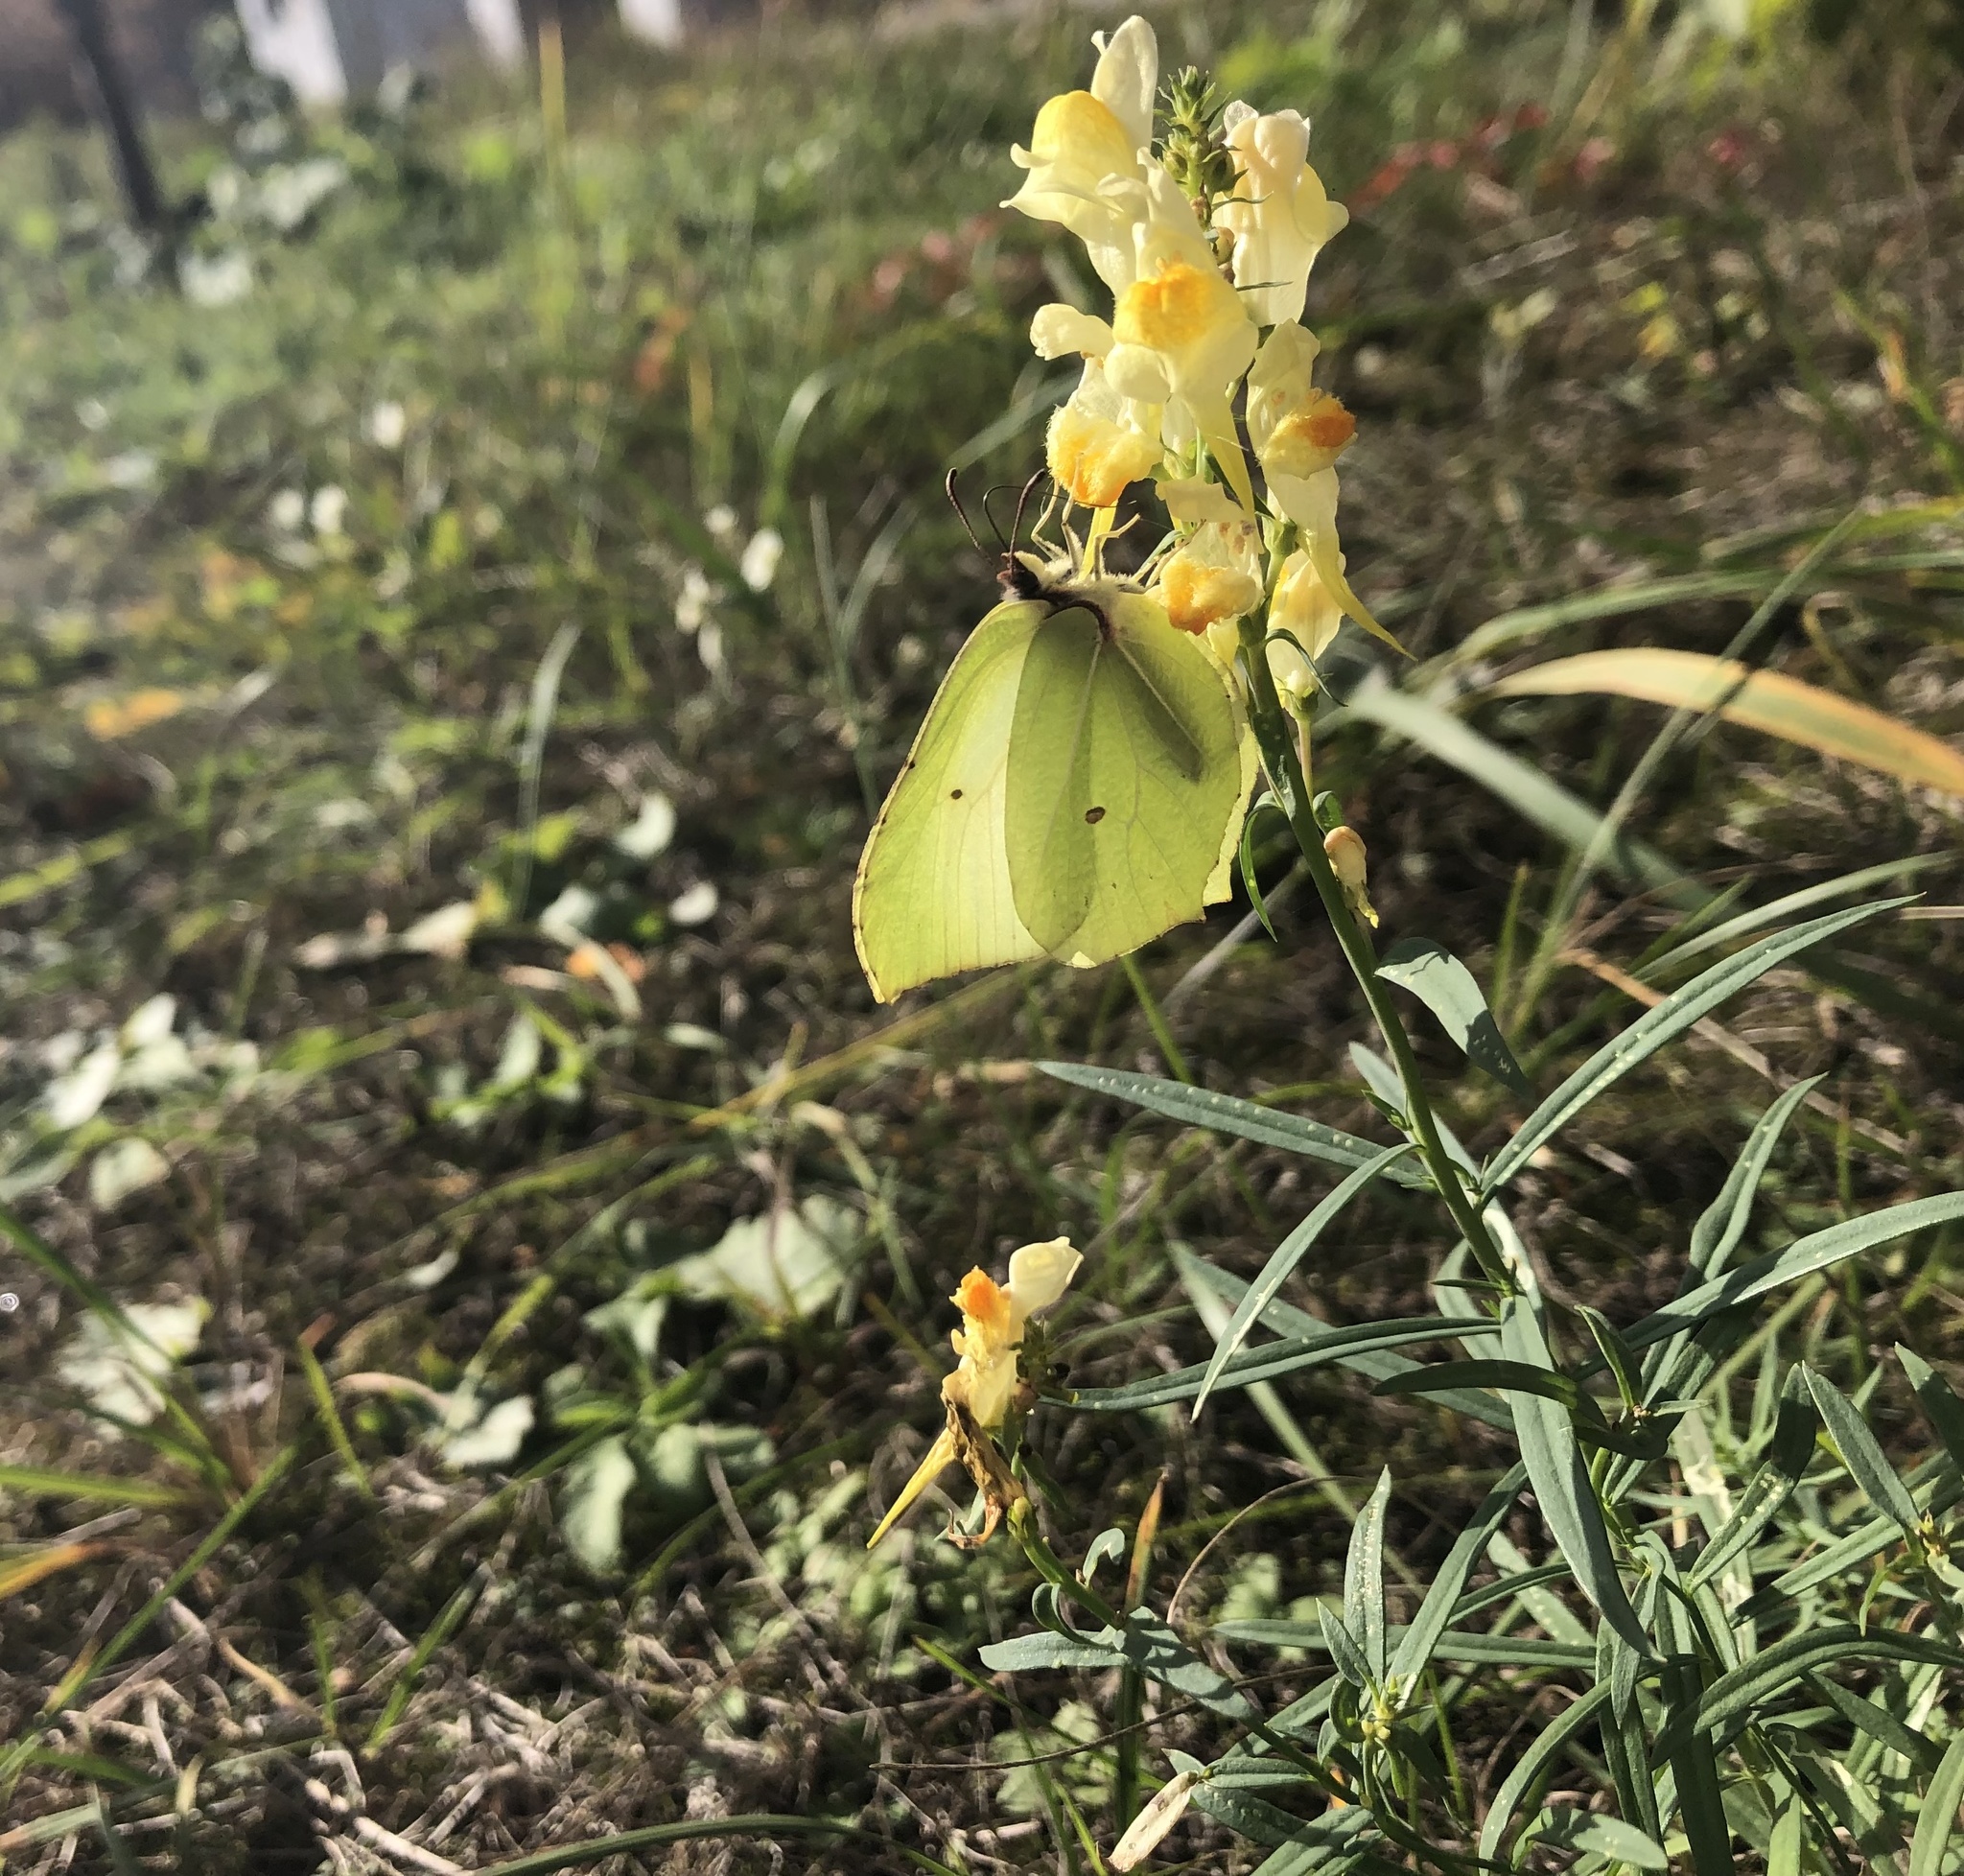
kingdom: Animalia
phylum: Arthropoda
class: Insecta
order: Lepidoptera
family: Pieridae
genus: Gonepteryx
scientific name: Gonepteryx rhamni
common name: Brimstone
